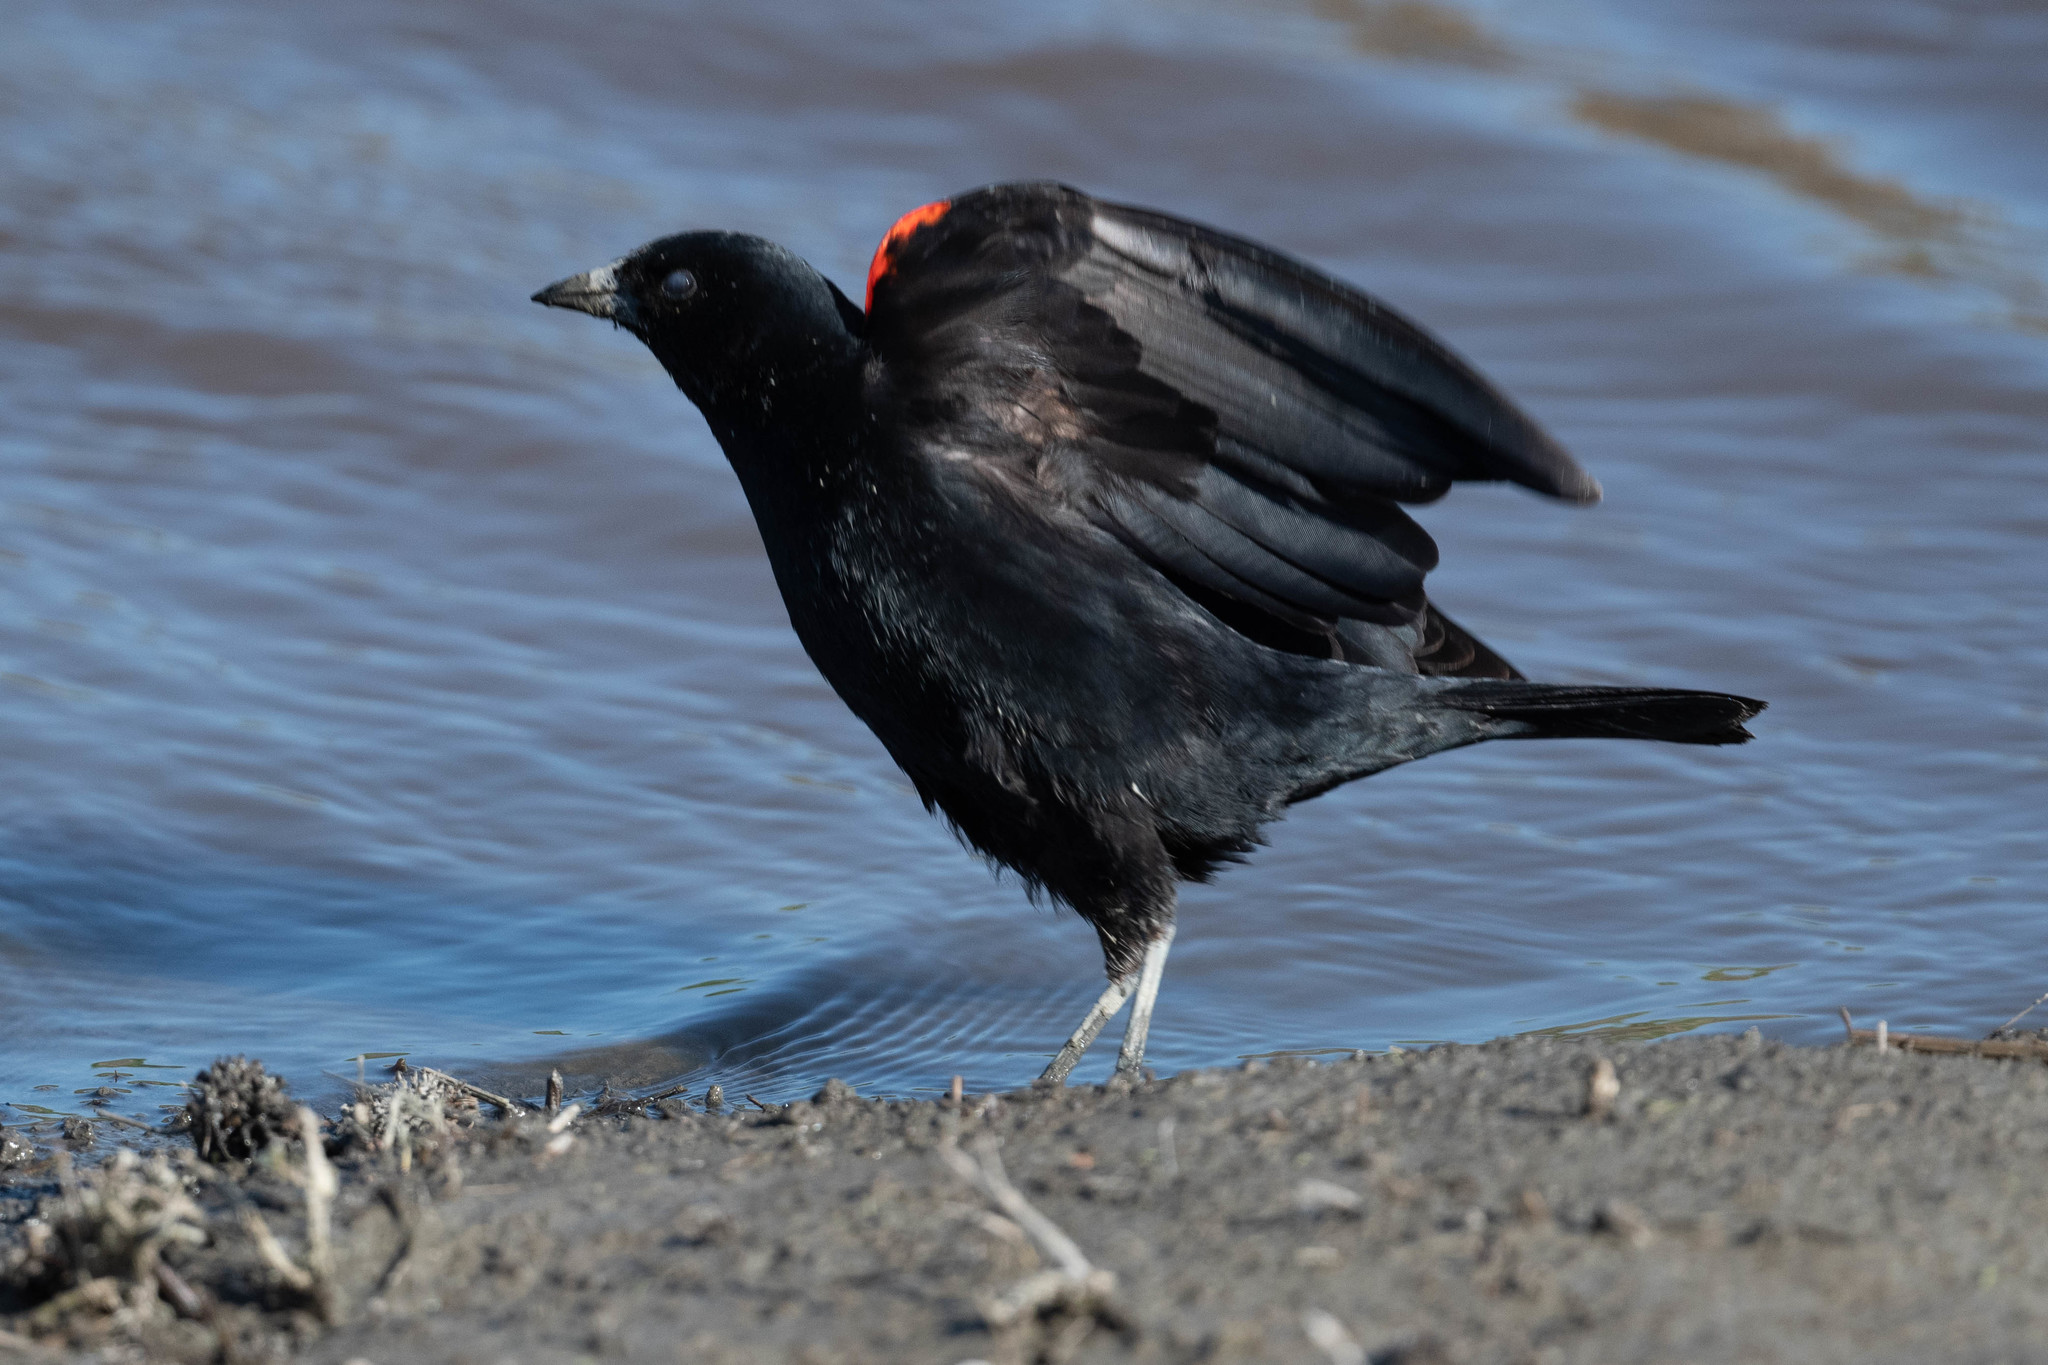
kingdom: Animalia
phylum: Chordata
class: Aves
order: Passeriformes
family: Icteridae
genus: Agelaius
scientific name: Agelaius phoeniceus
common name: Red-winged blackbird
